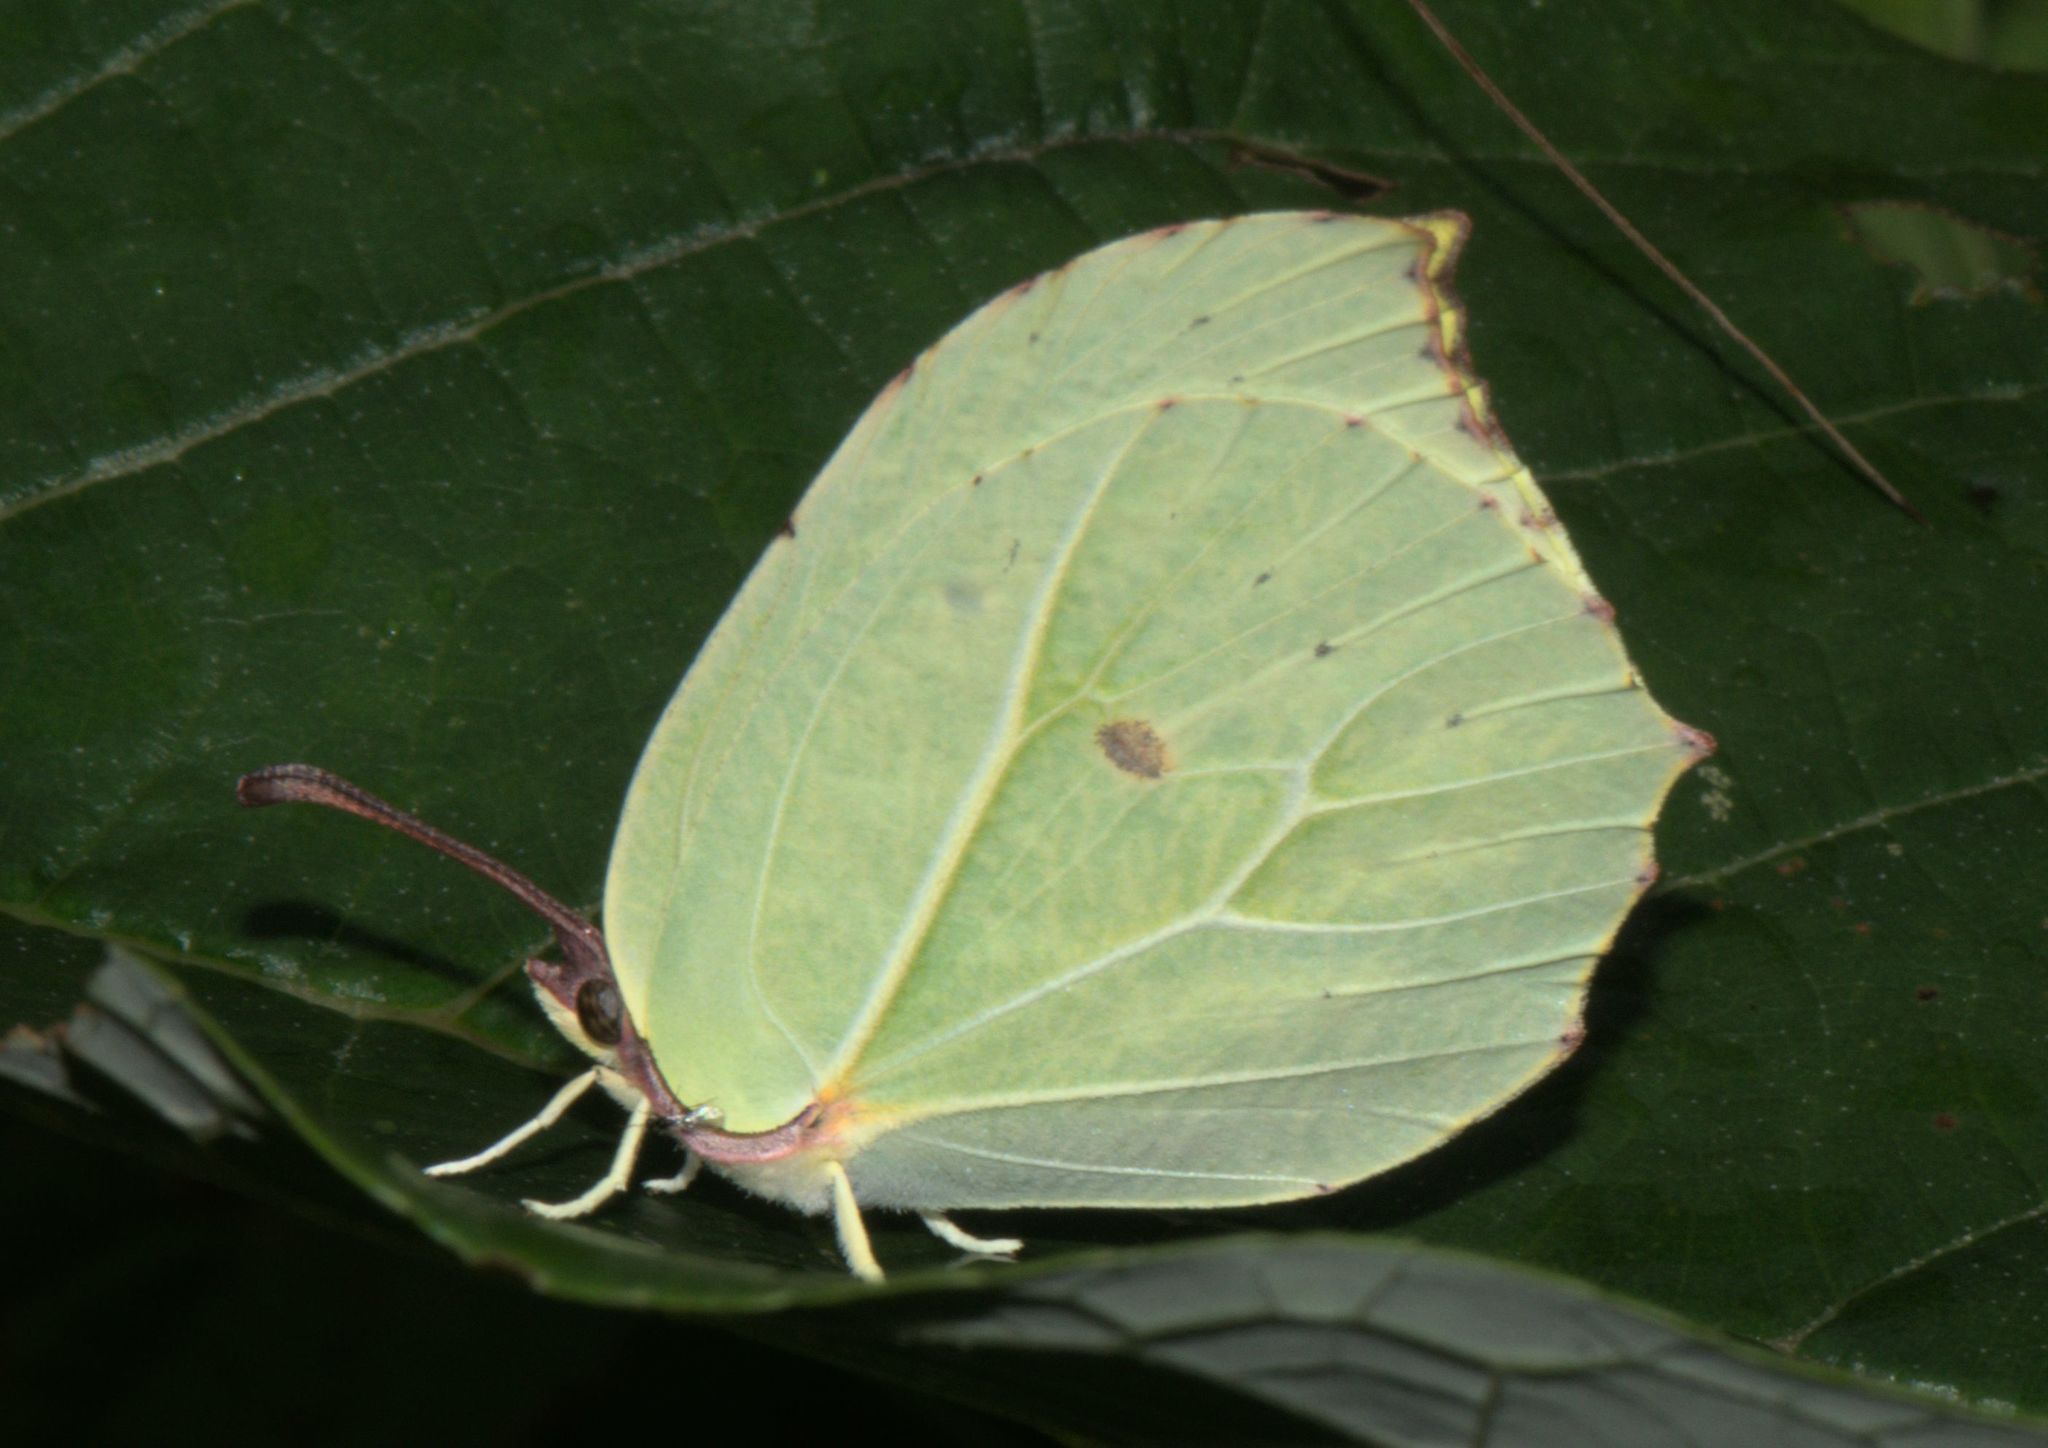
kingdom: Animalia
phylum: Arthropoda
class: Insecta
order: Lepidoptera
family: Pieridae
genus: Gonepteryx
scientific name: Gonepteryx
